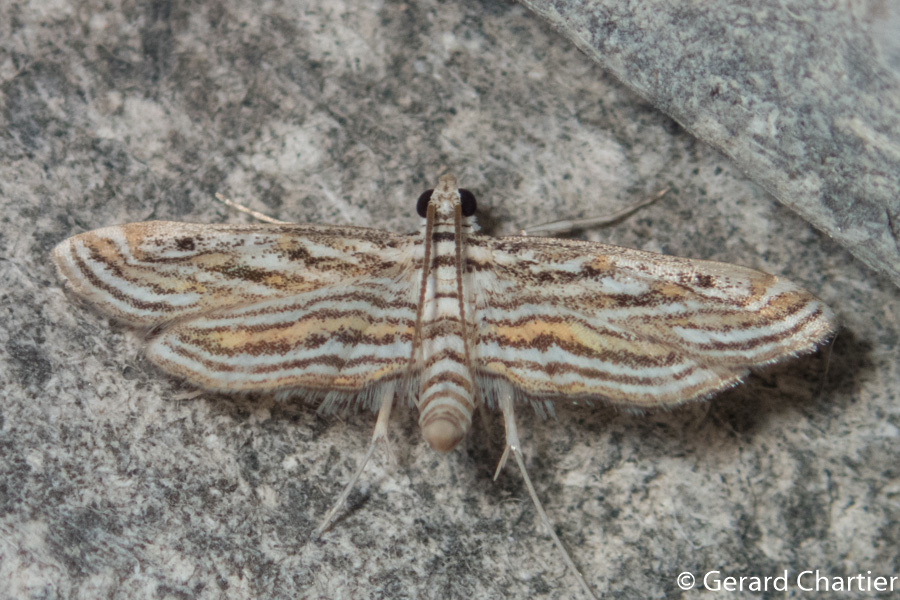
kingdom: Animalia
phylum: Arthropoda
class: Insecta
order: Lepidoptera
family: Crambidae
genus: Parapoynx
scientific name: Parapoynx fluctuosalis
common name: Moth
